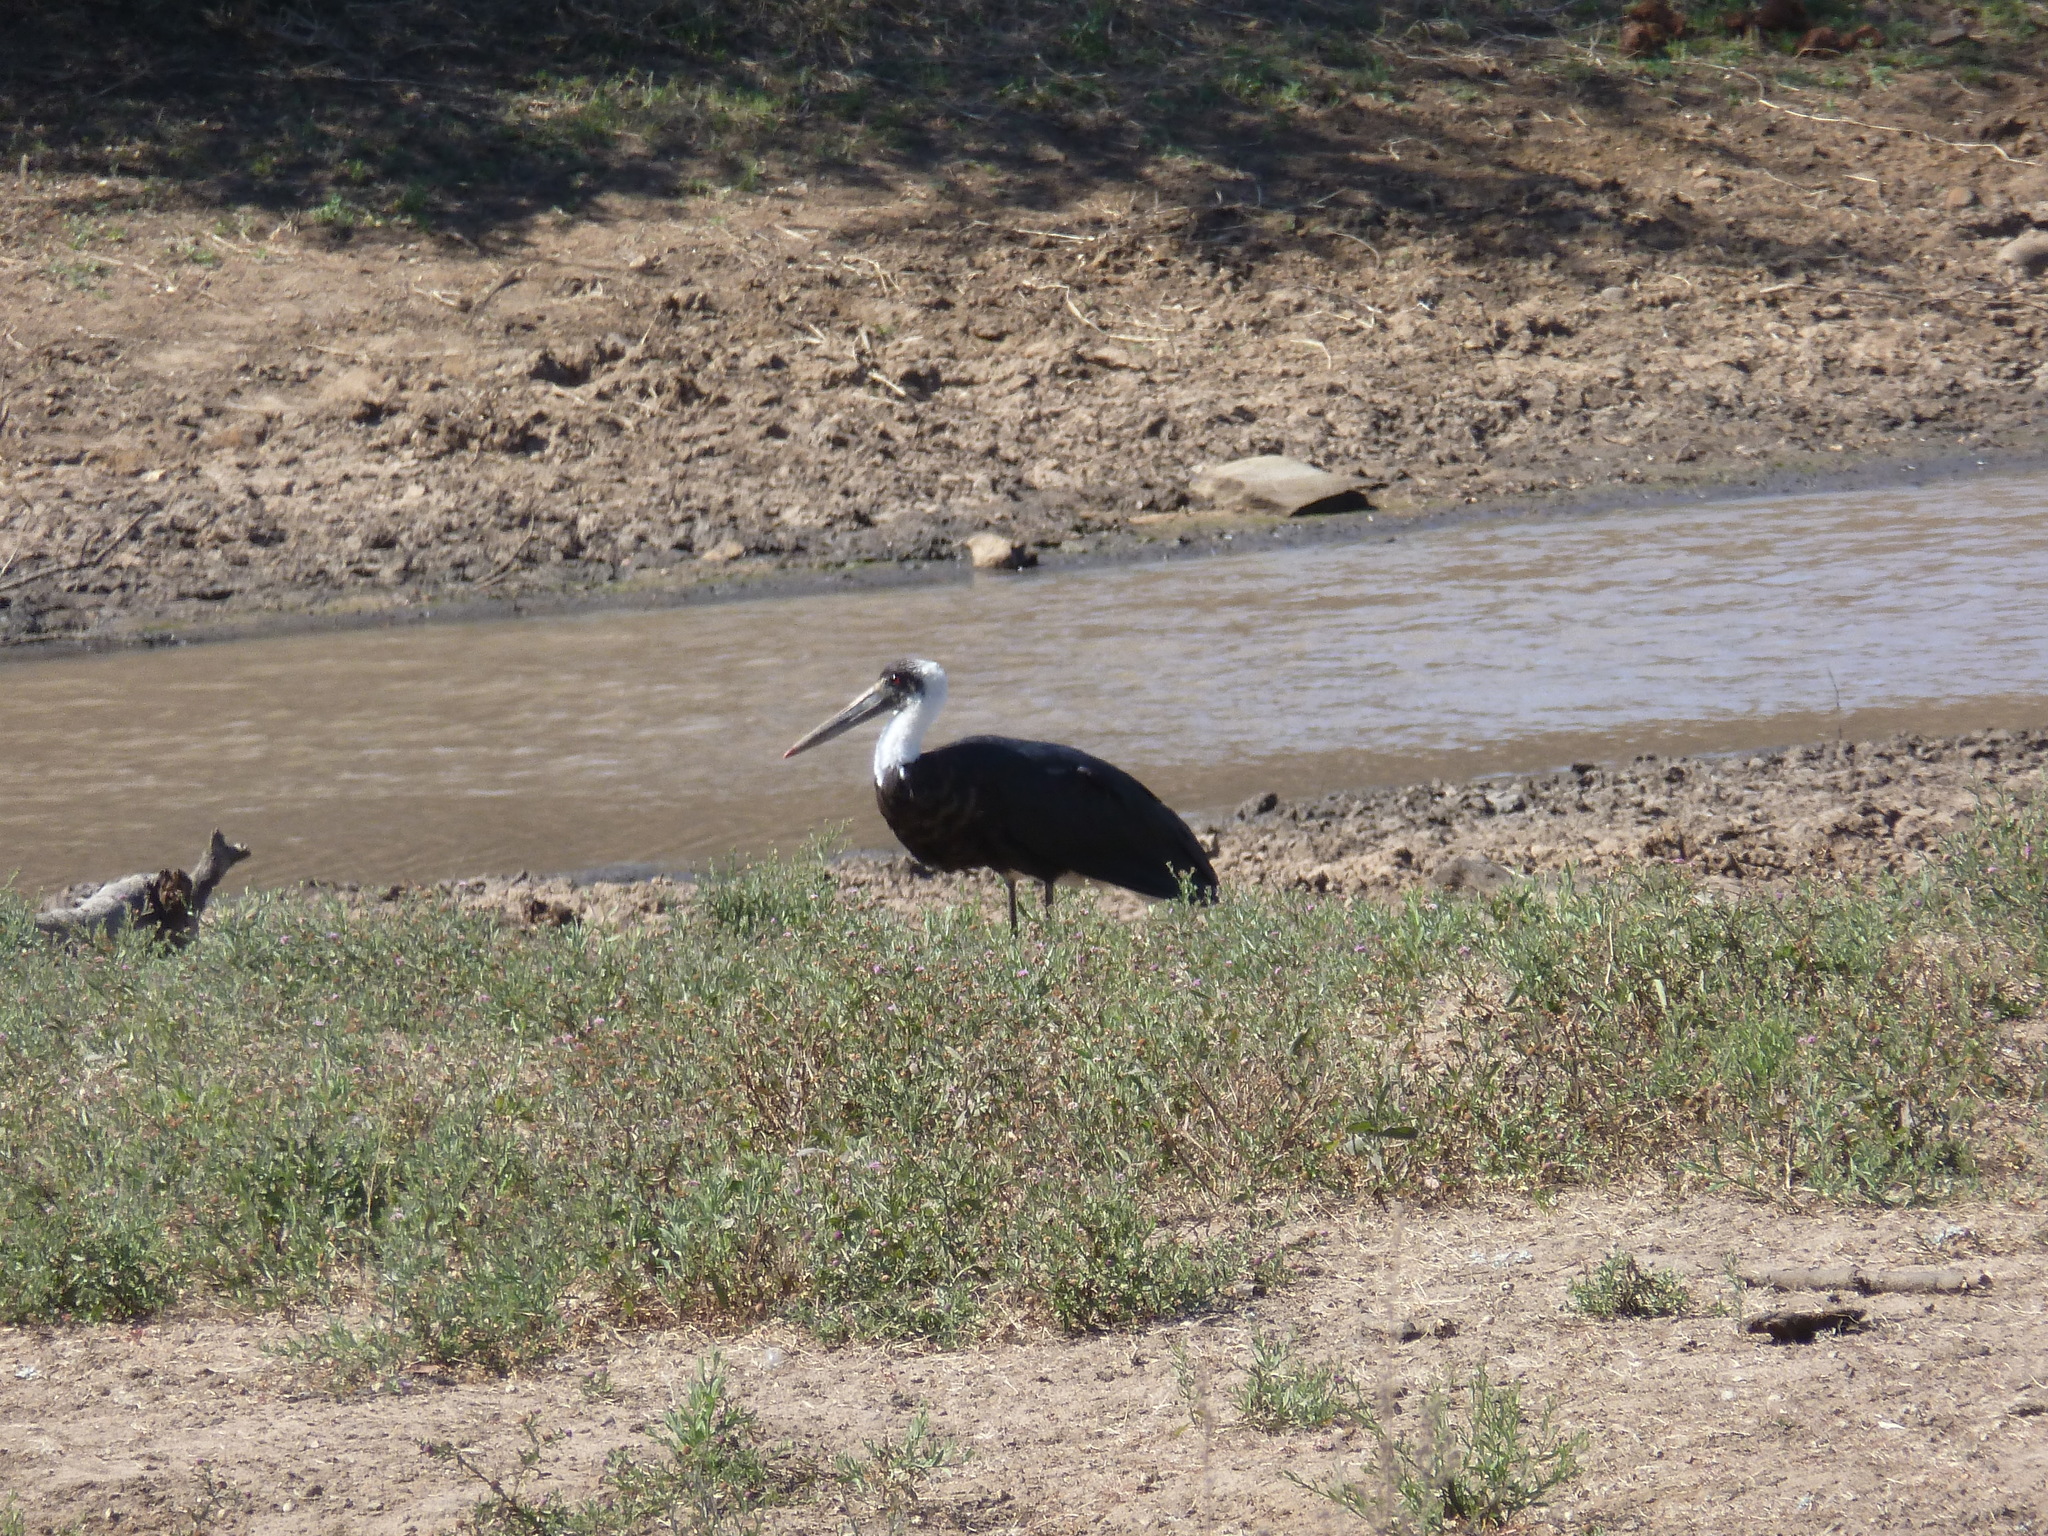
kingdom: Animalia
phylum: Chordata
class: Aves
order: Ciconiiformes
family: Ciconiidae
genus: Ciconia
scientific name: Ciconia microscelis
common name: African woollyneck
